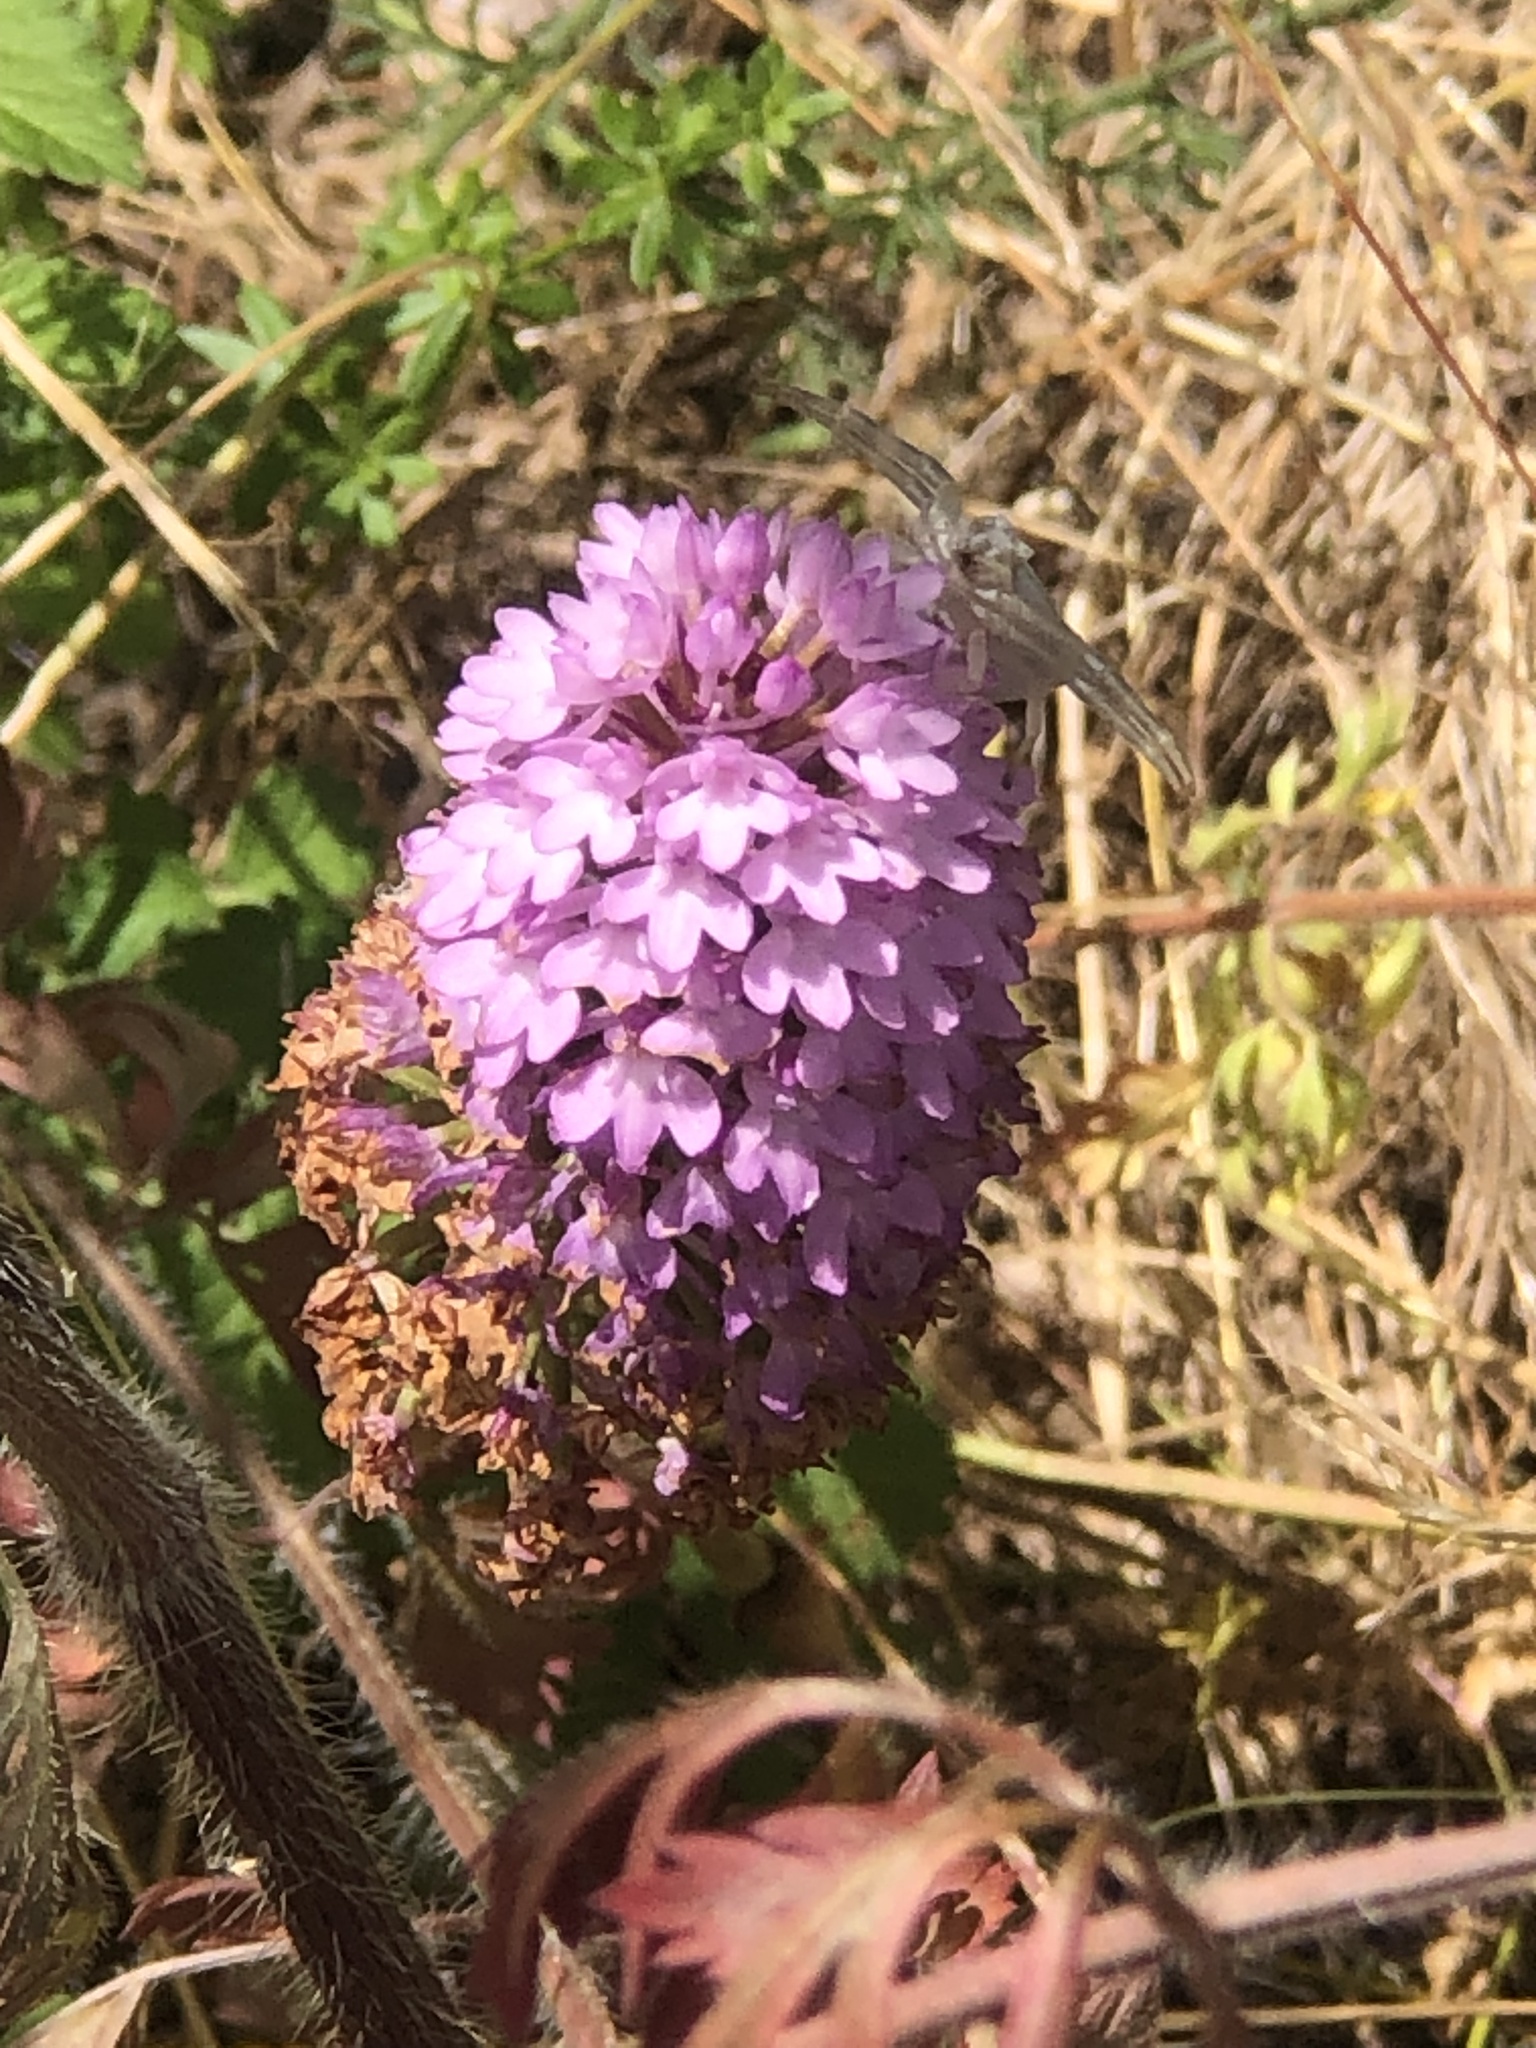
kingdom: Plantae
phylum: Tracheophyta
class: Liliopsida
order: Asparagales
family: Orchidaceae
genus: Anacamptis
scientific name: Anacamptis pyramidalis
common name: Pyramidal orchid
